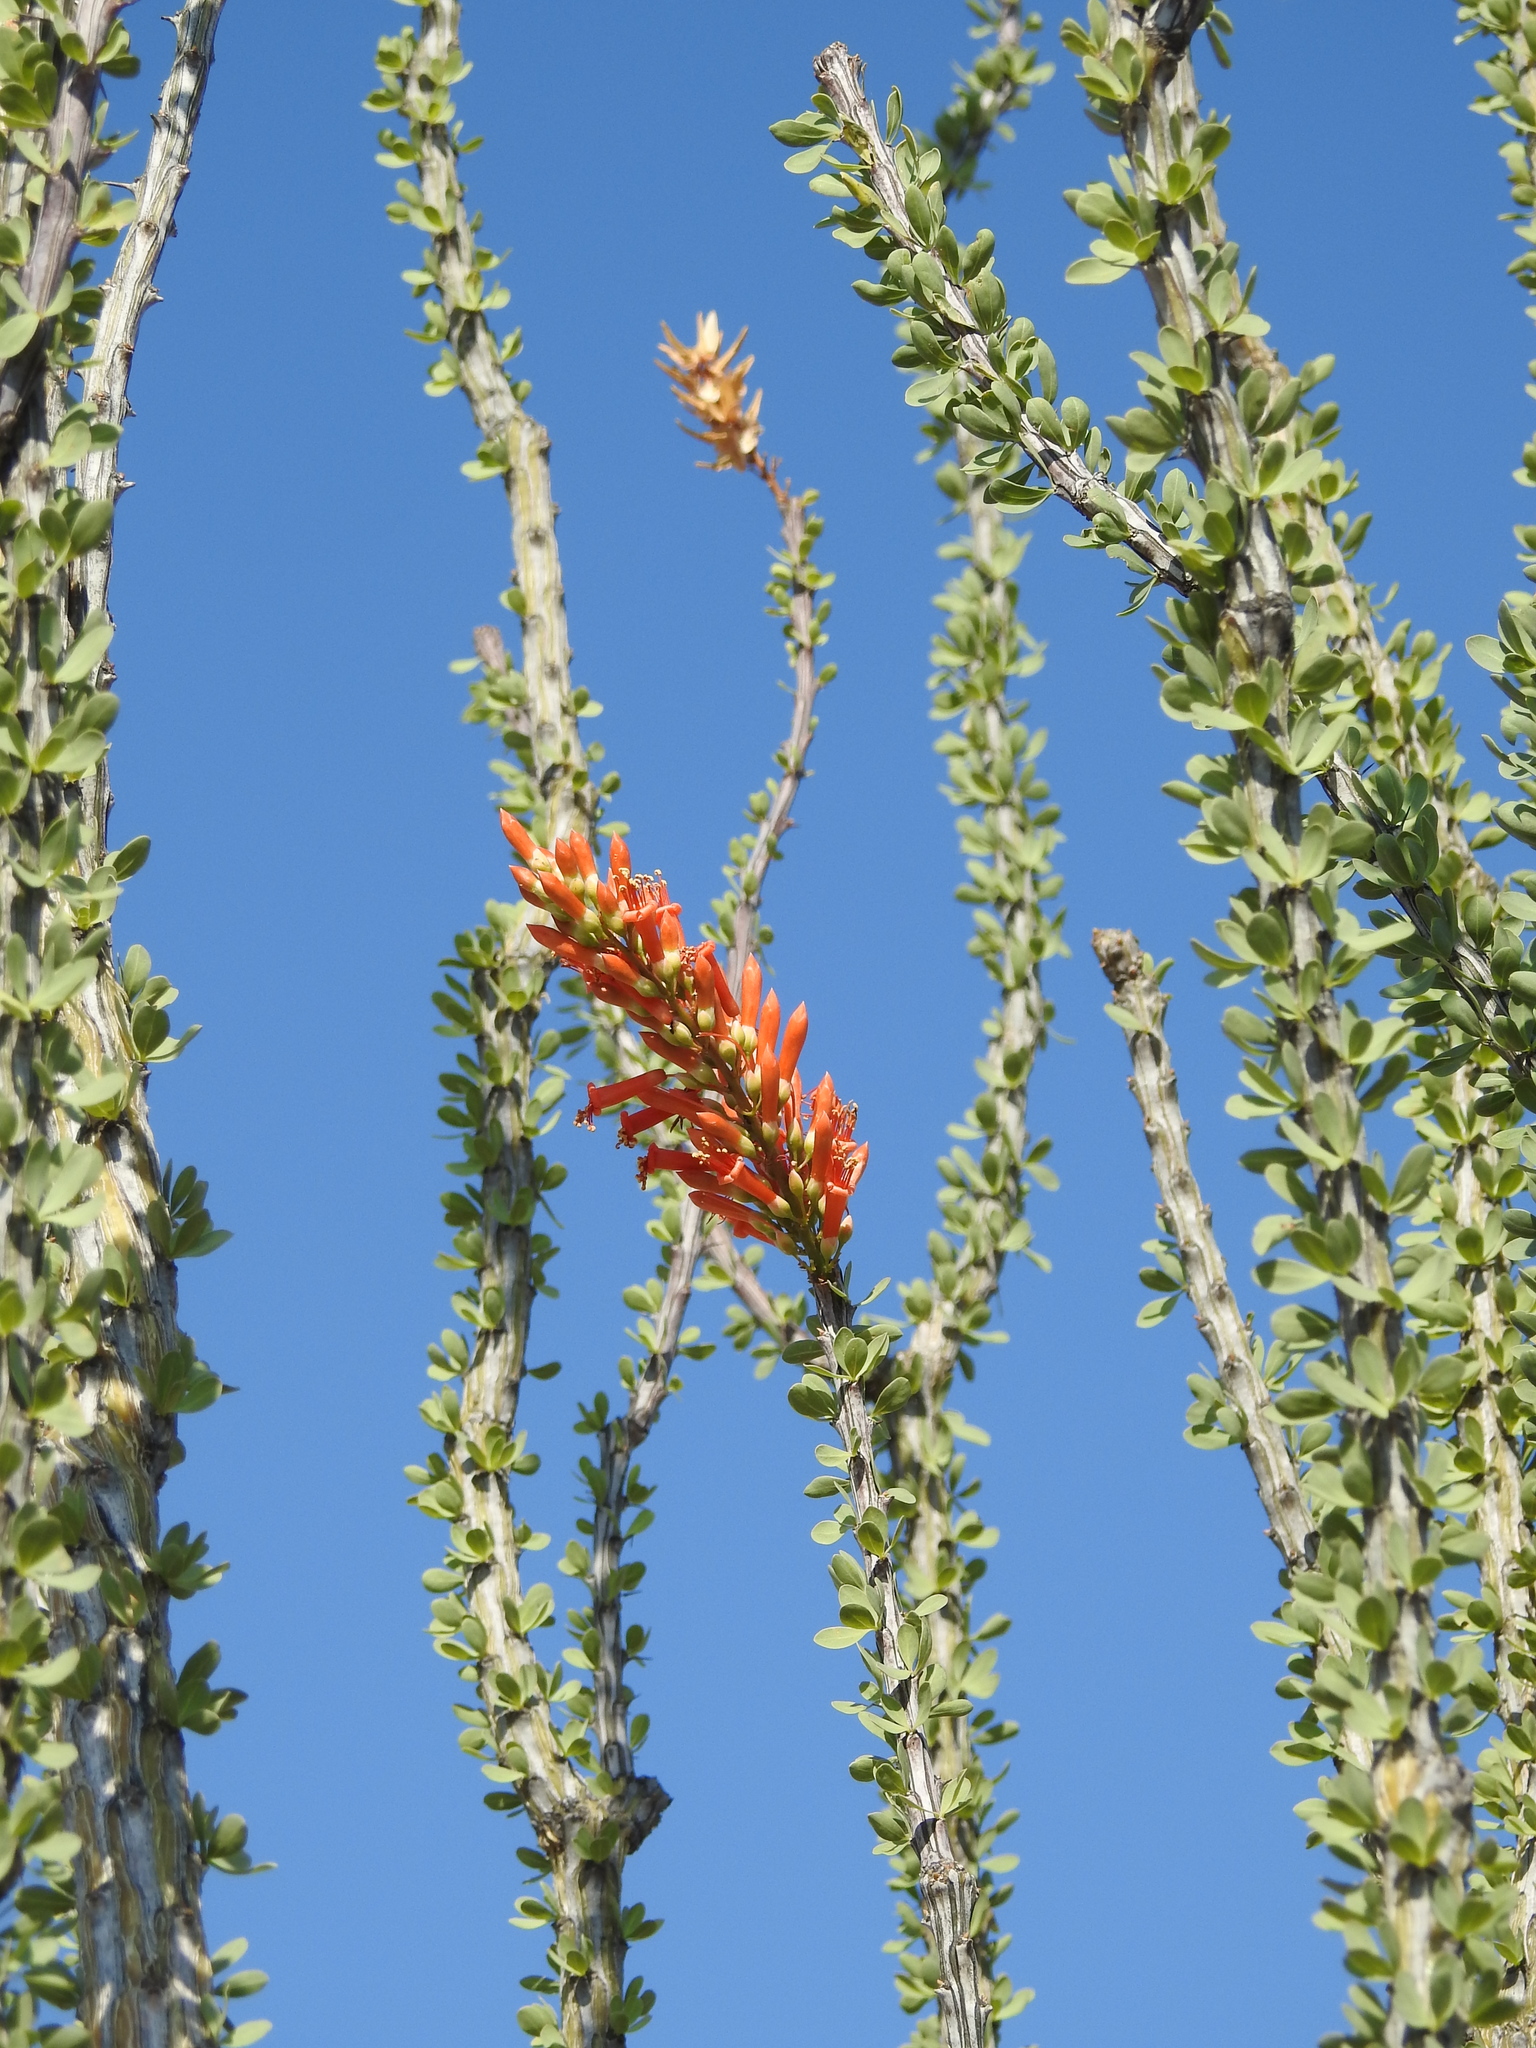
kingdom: Plantae
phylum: Tracheophyta
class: Magnoliopsida
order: Ericales
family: Fouquieriaceae
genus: Fouquieria
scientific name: Fouquieria splendens
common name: Vine-cactus
